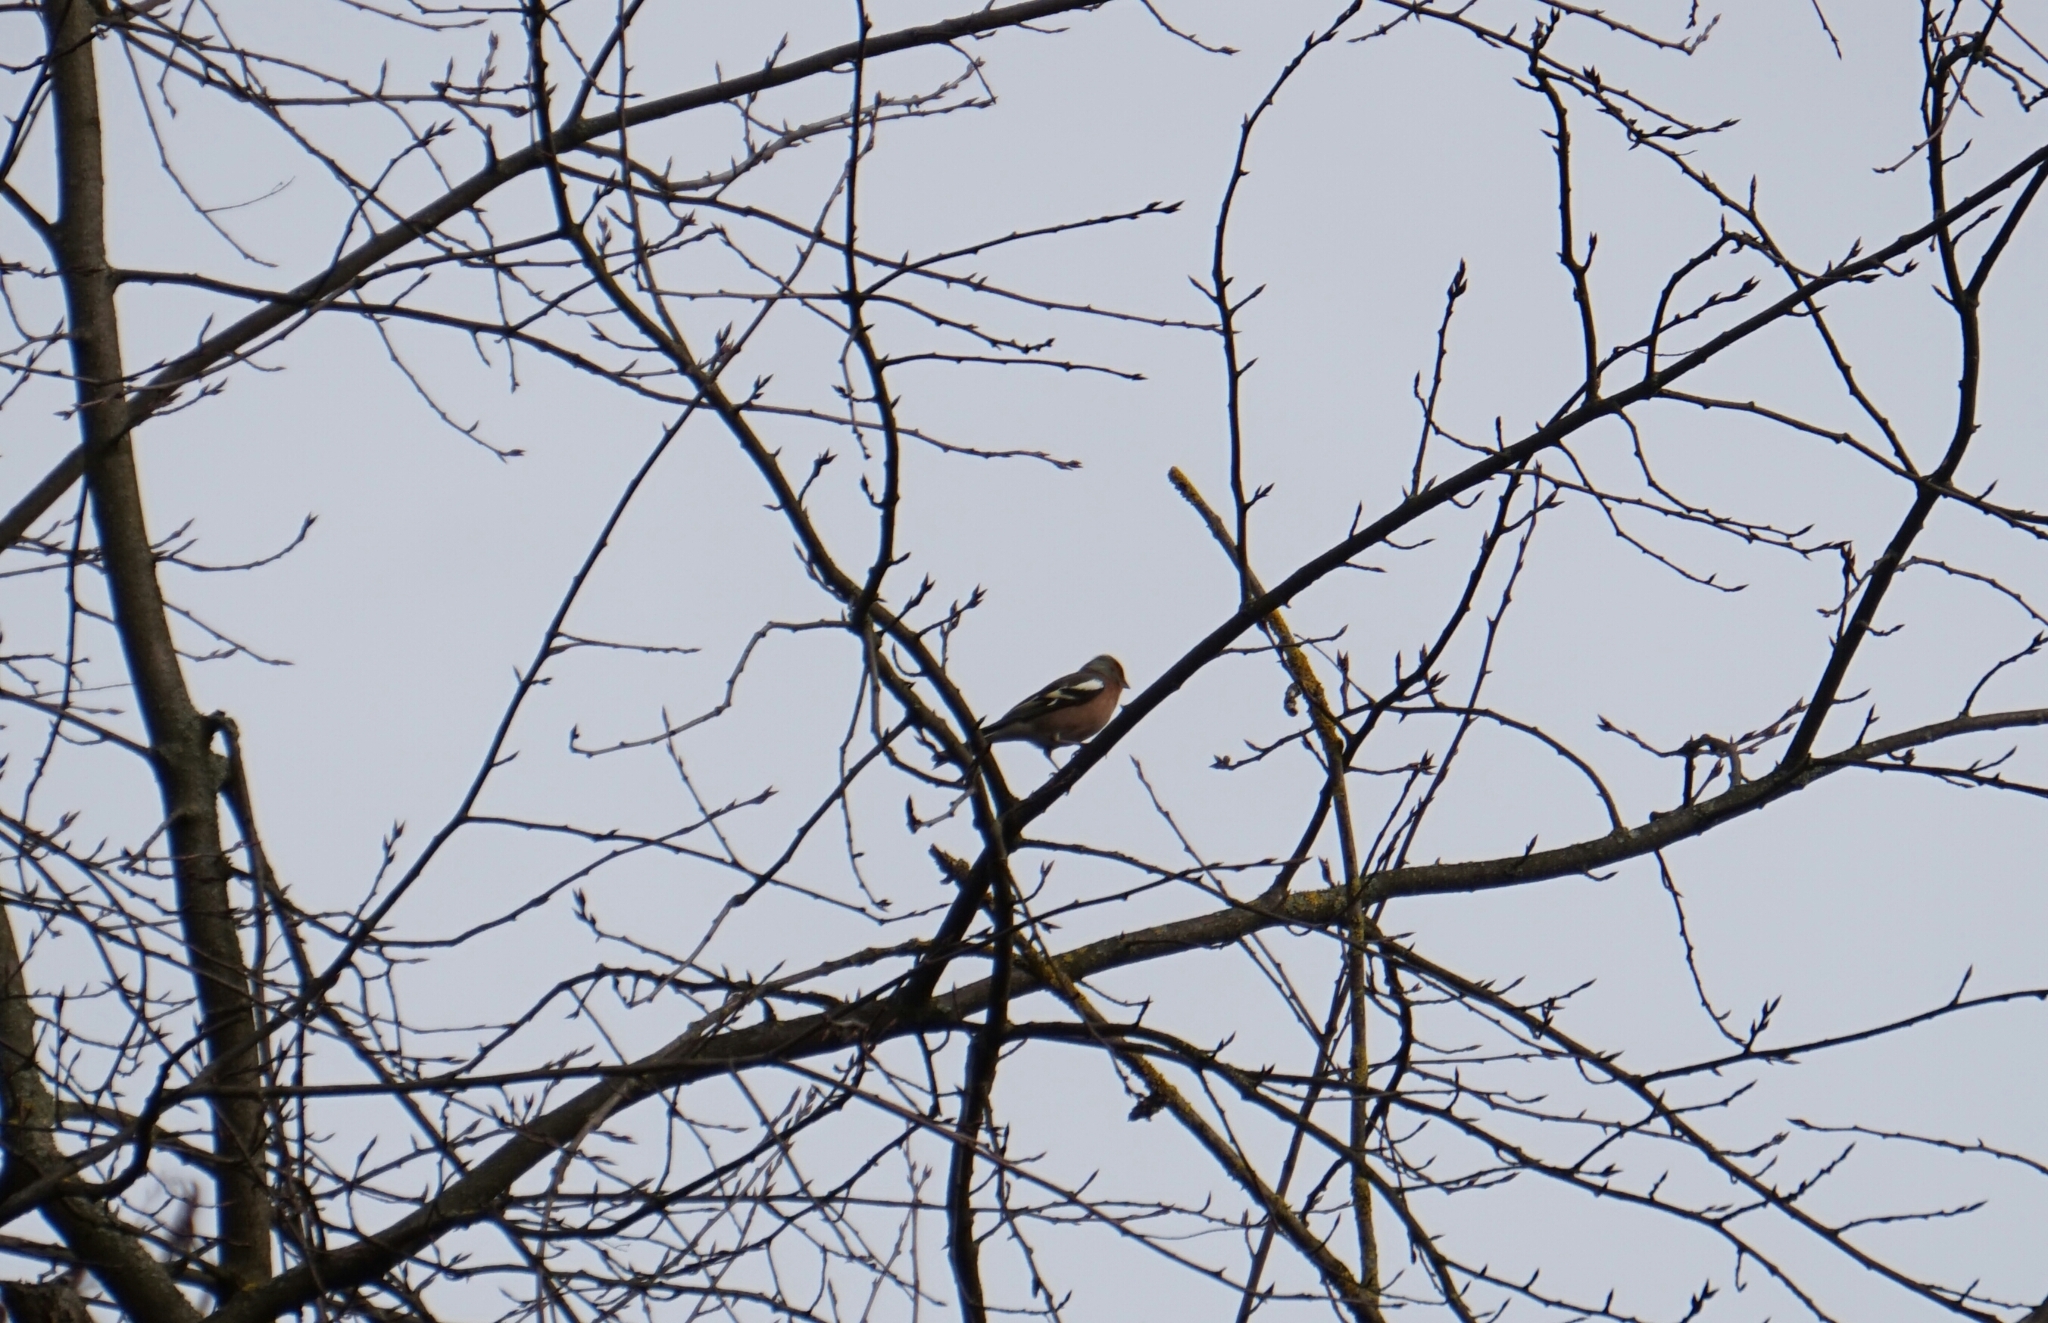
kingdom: Animalia
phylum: Chordata
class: Aves
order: Passeriformes
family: Fringillidae
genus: Fringilla
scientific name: Fringilla coelebs
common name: Common chaffinch
